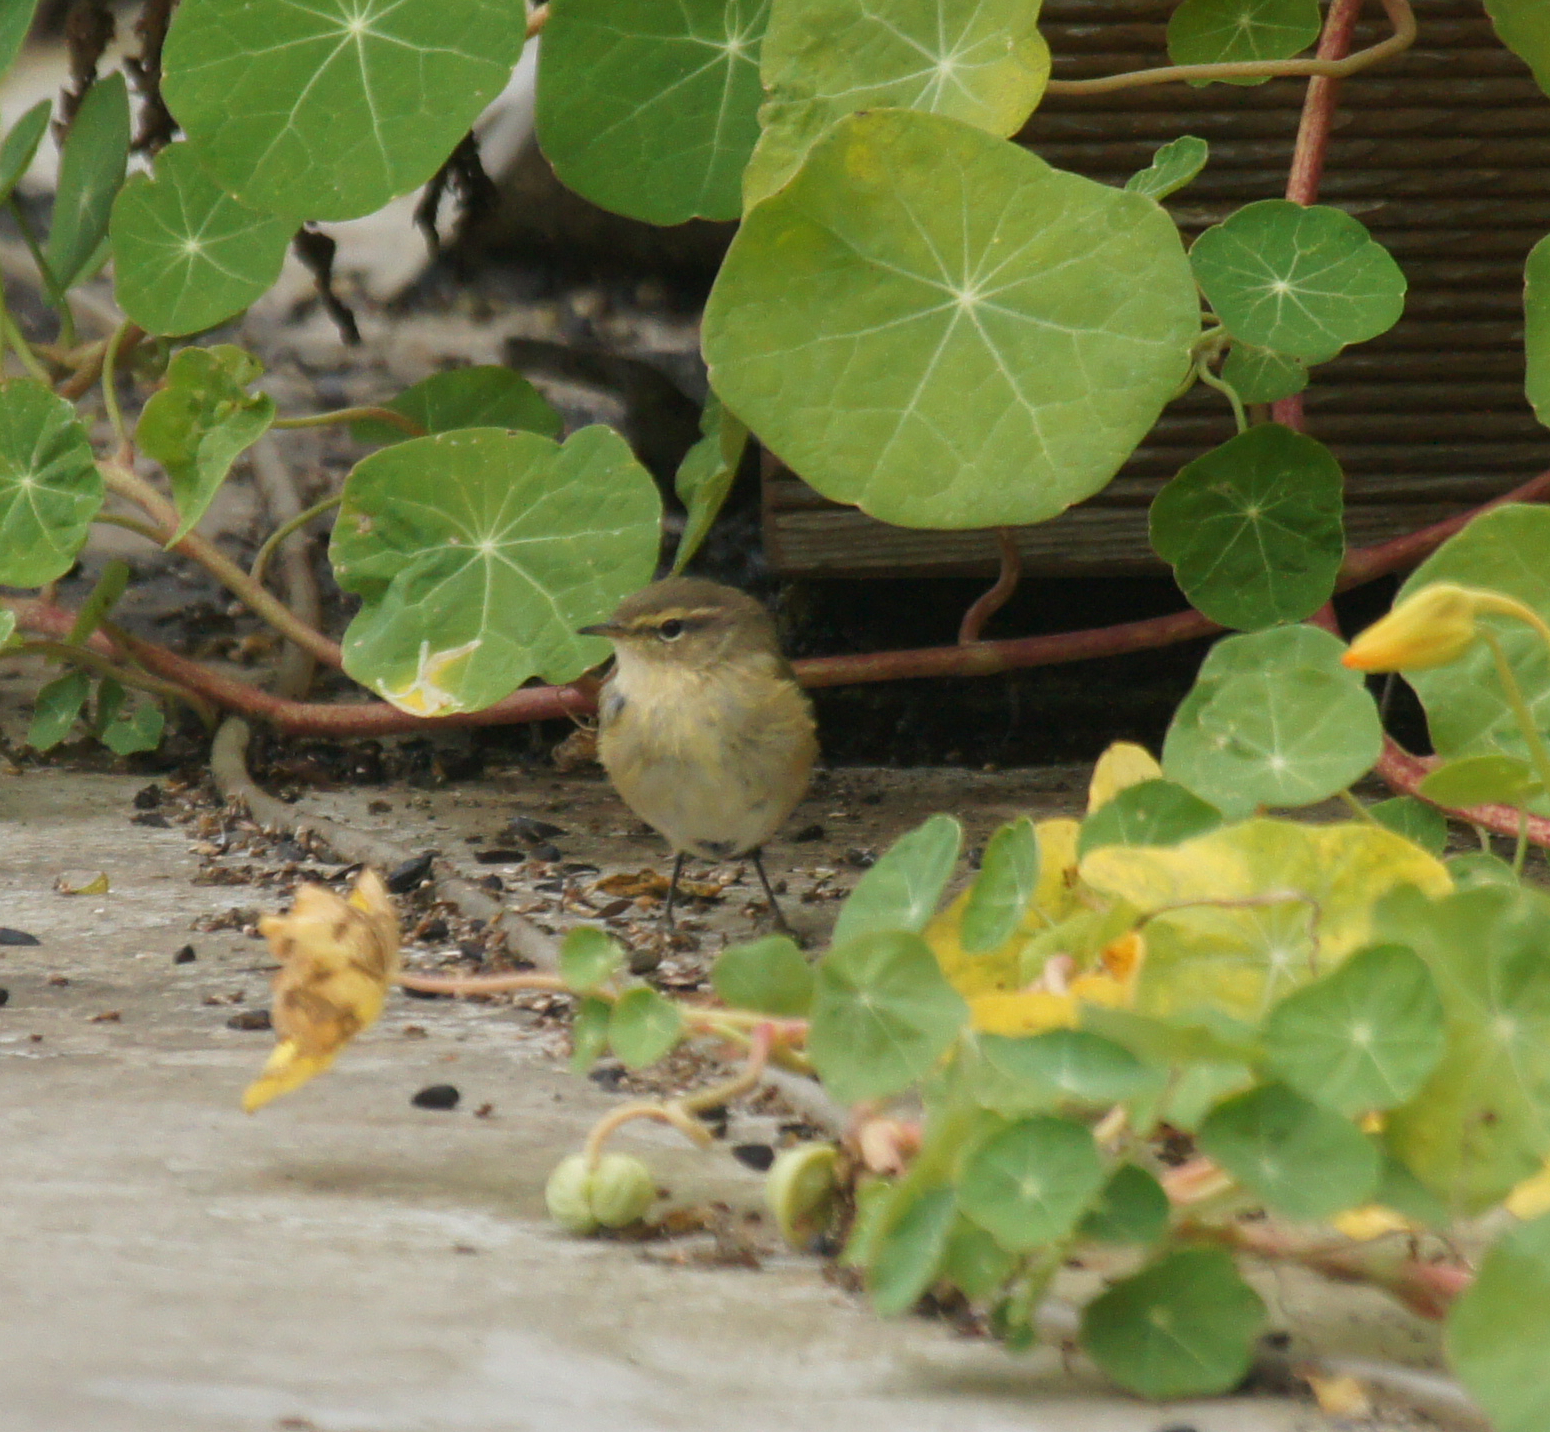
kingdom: Animalia
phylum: Chordata
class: Aves
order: Passeriformes
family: Phylloscopidae
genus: Phylloscopus
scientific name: Phylloscopus collybita
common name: Common chiffchaff
